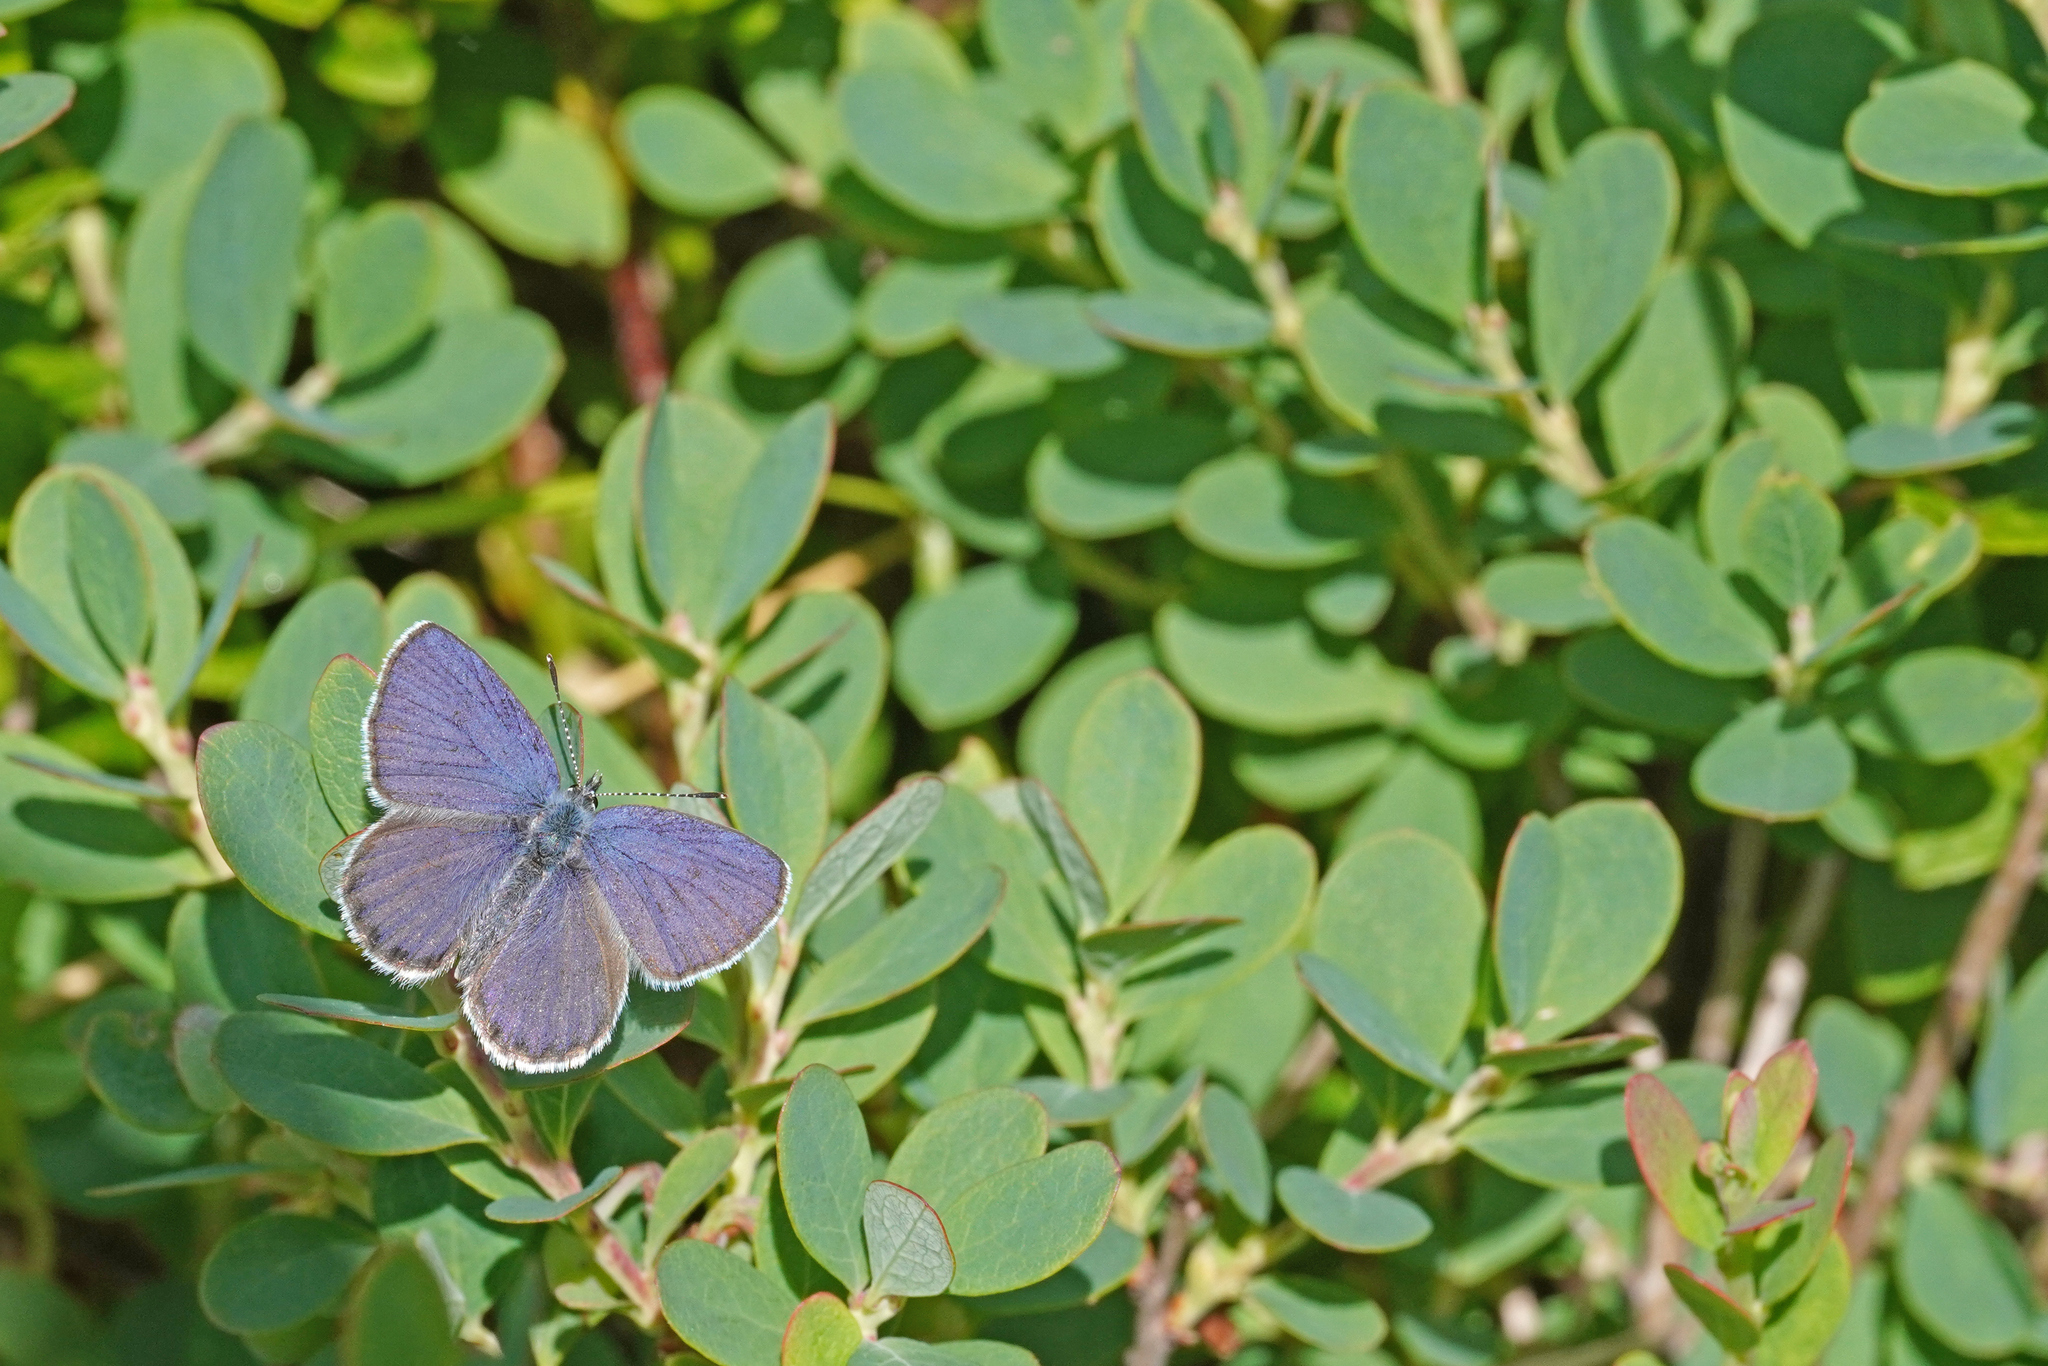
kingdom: Animalia
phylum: Arthropoda
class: Insecta
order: Lepidoptera
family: Lycaenidae
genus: Vacciniina
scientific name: Vacciniina optilete
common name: Cranberry blue
